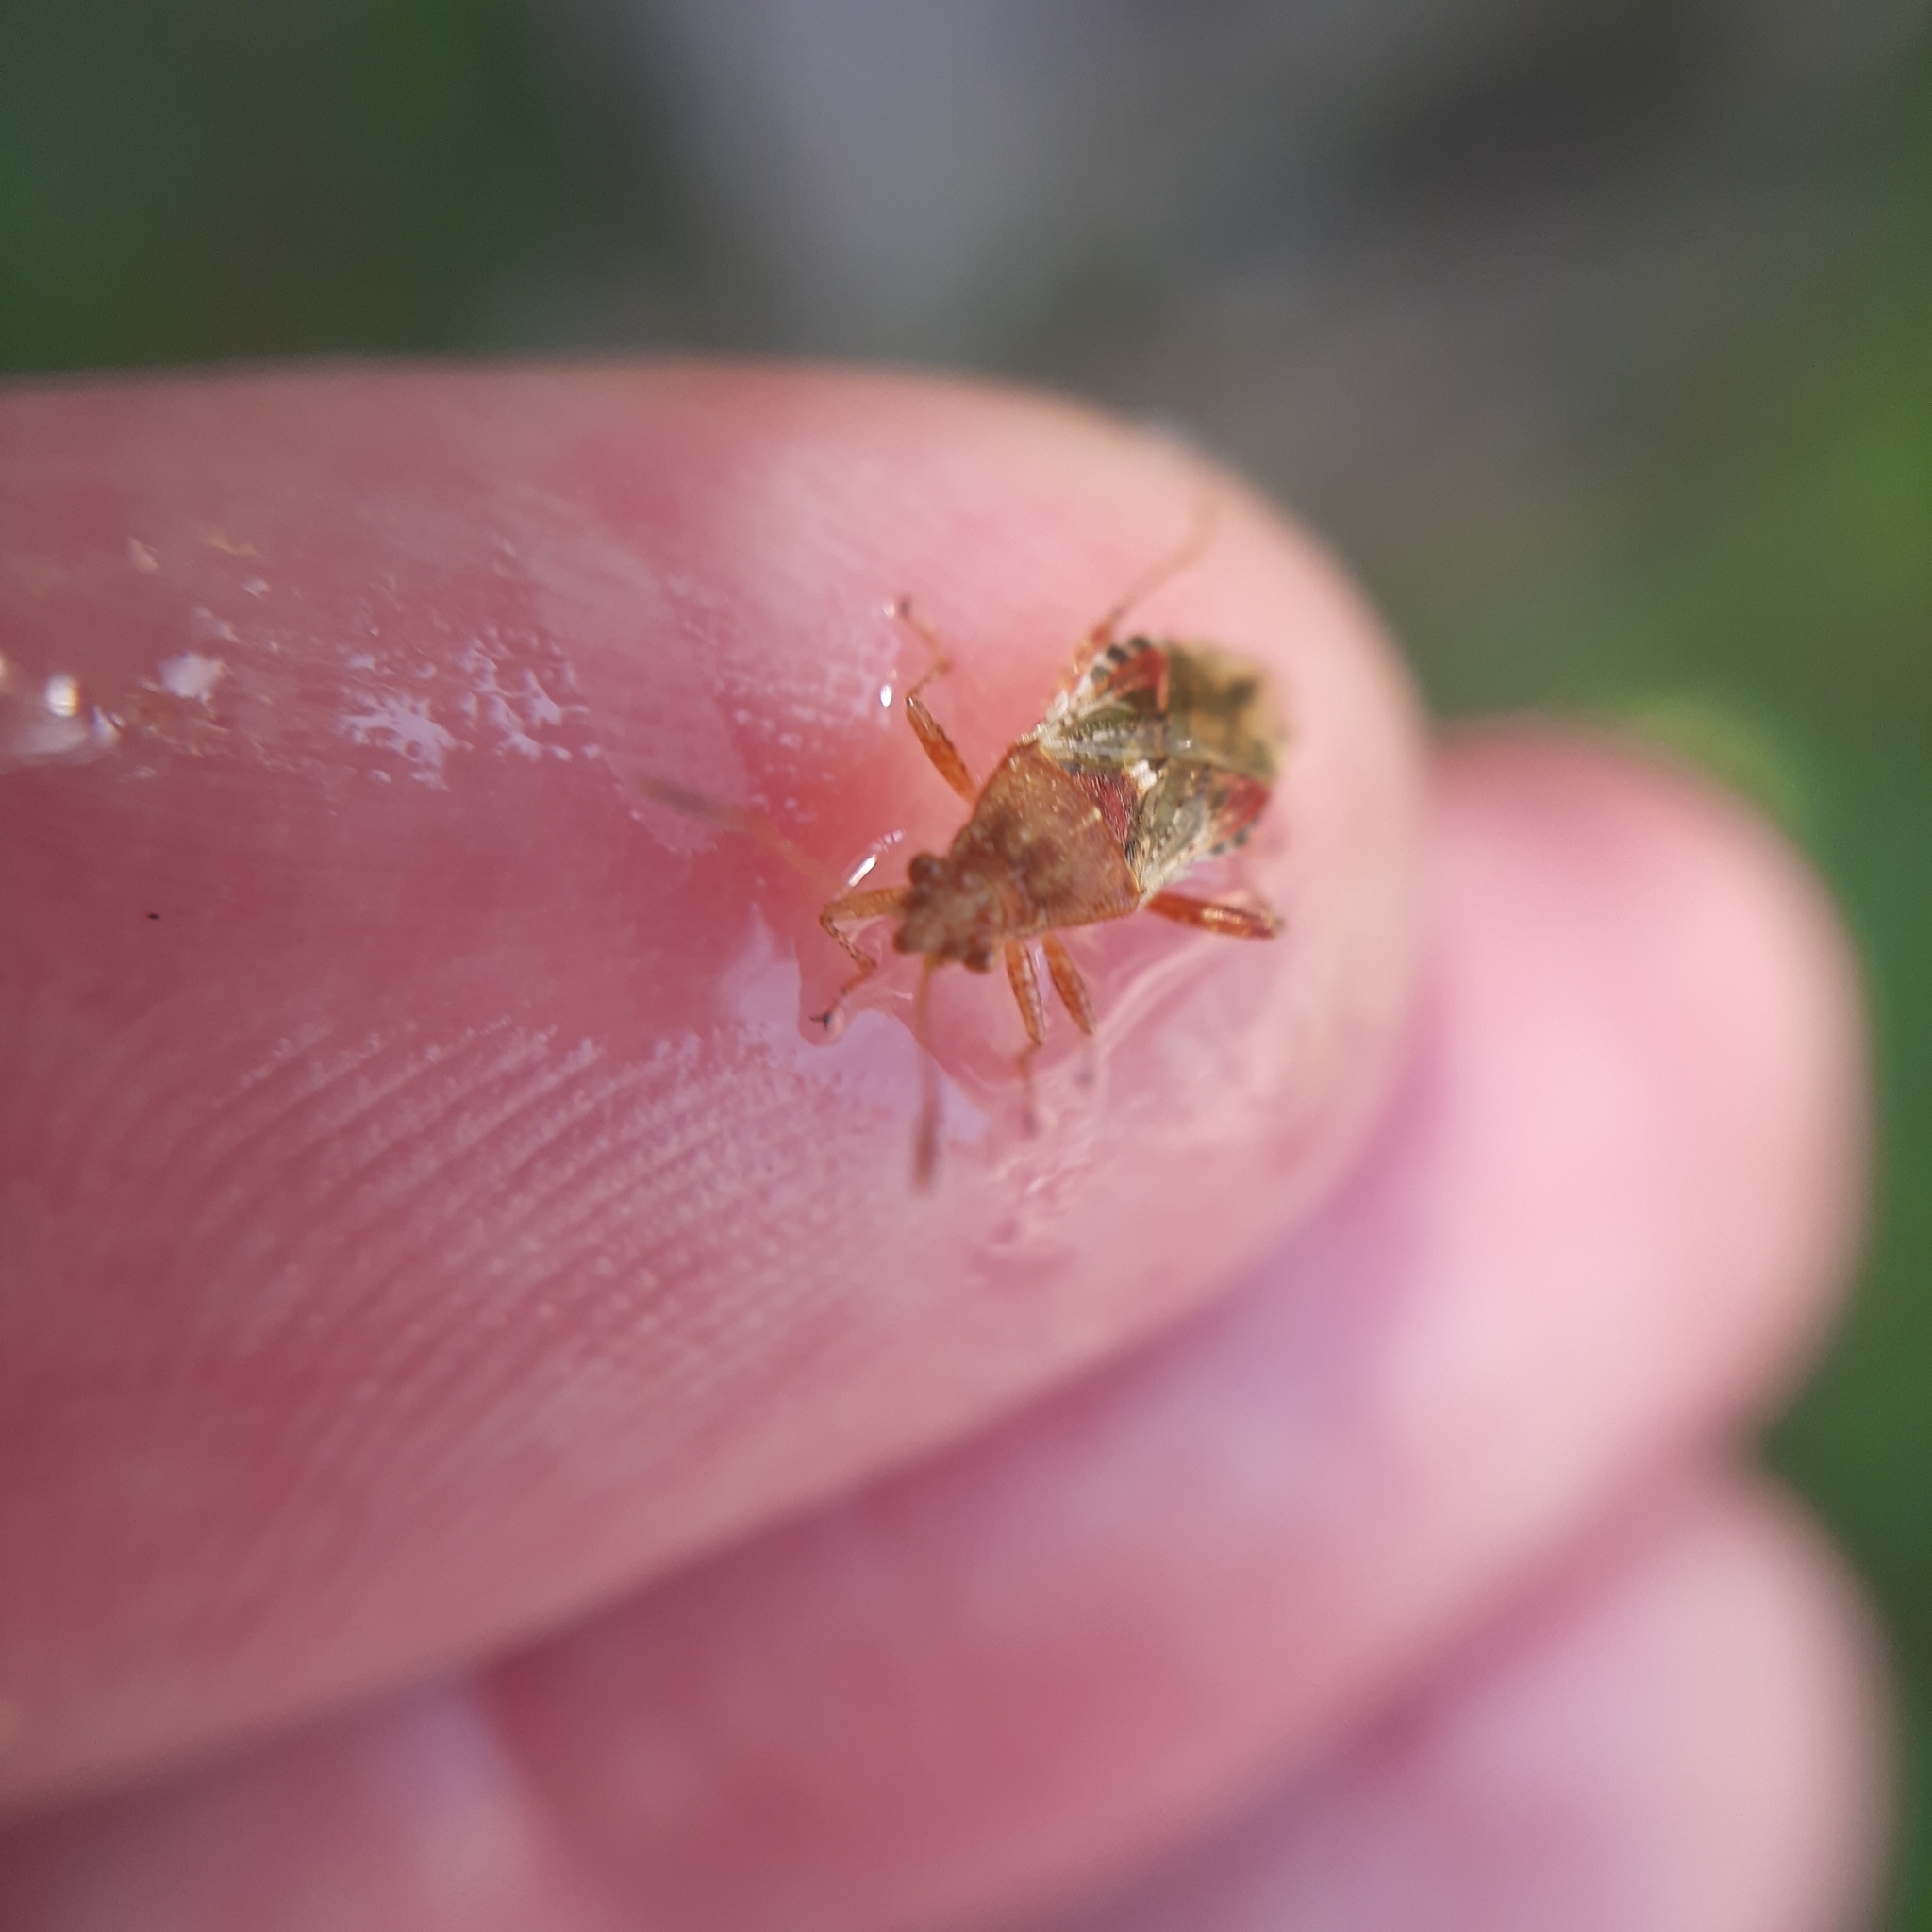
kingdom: Animalia
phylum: Arthropoda
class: Insecta
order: Hemiptera
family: Rhopalidae
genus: Rhopalus
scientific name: Rhopalus subrufus
